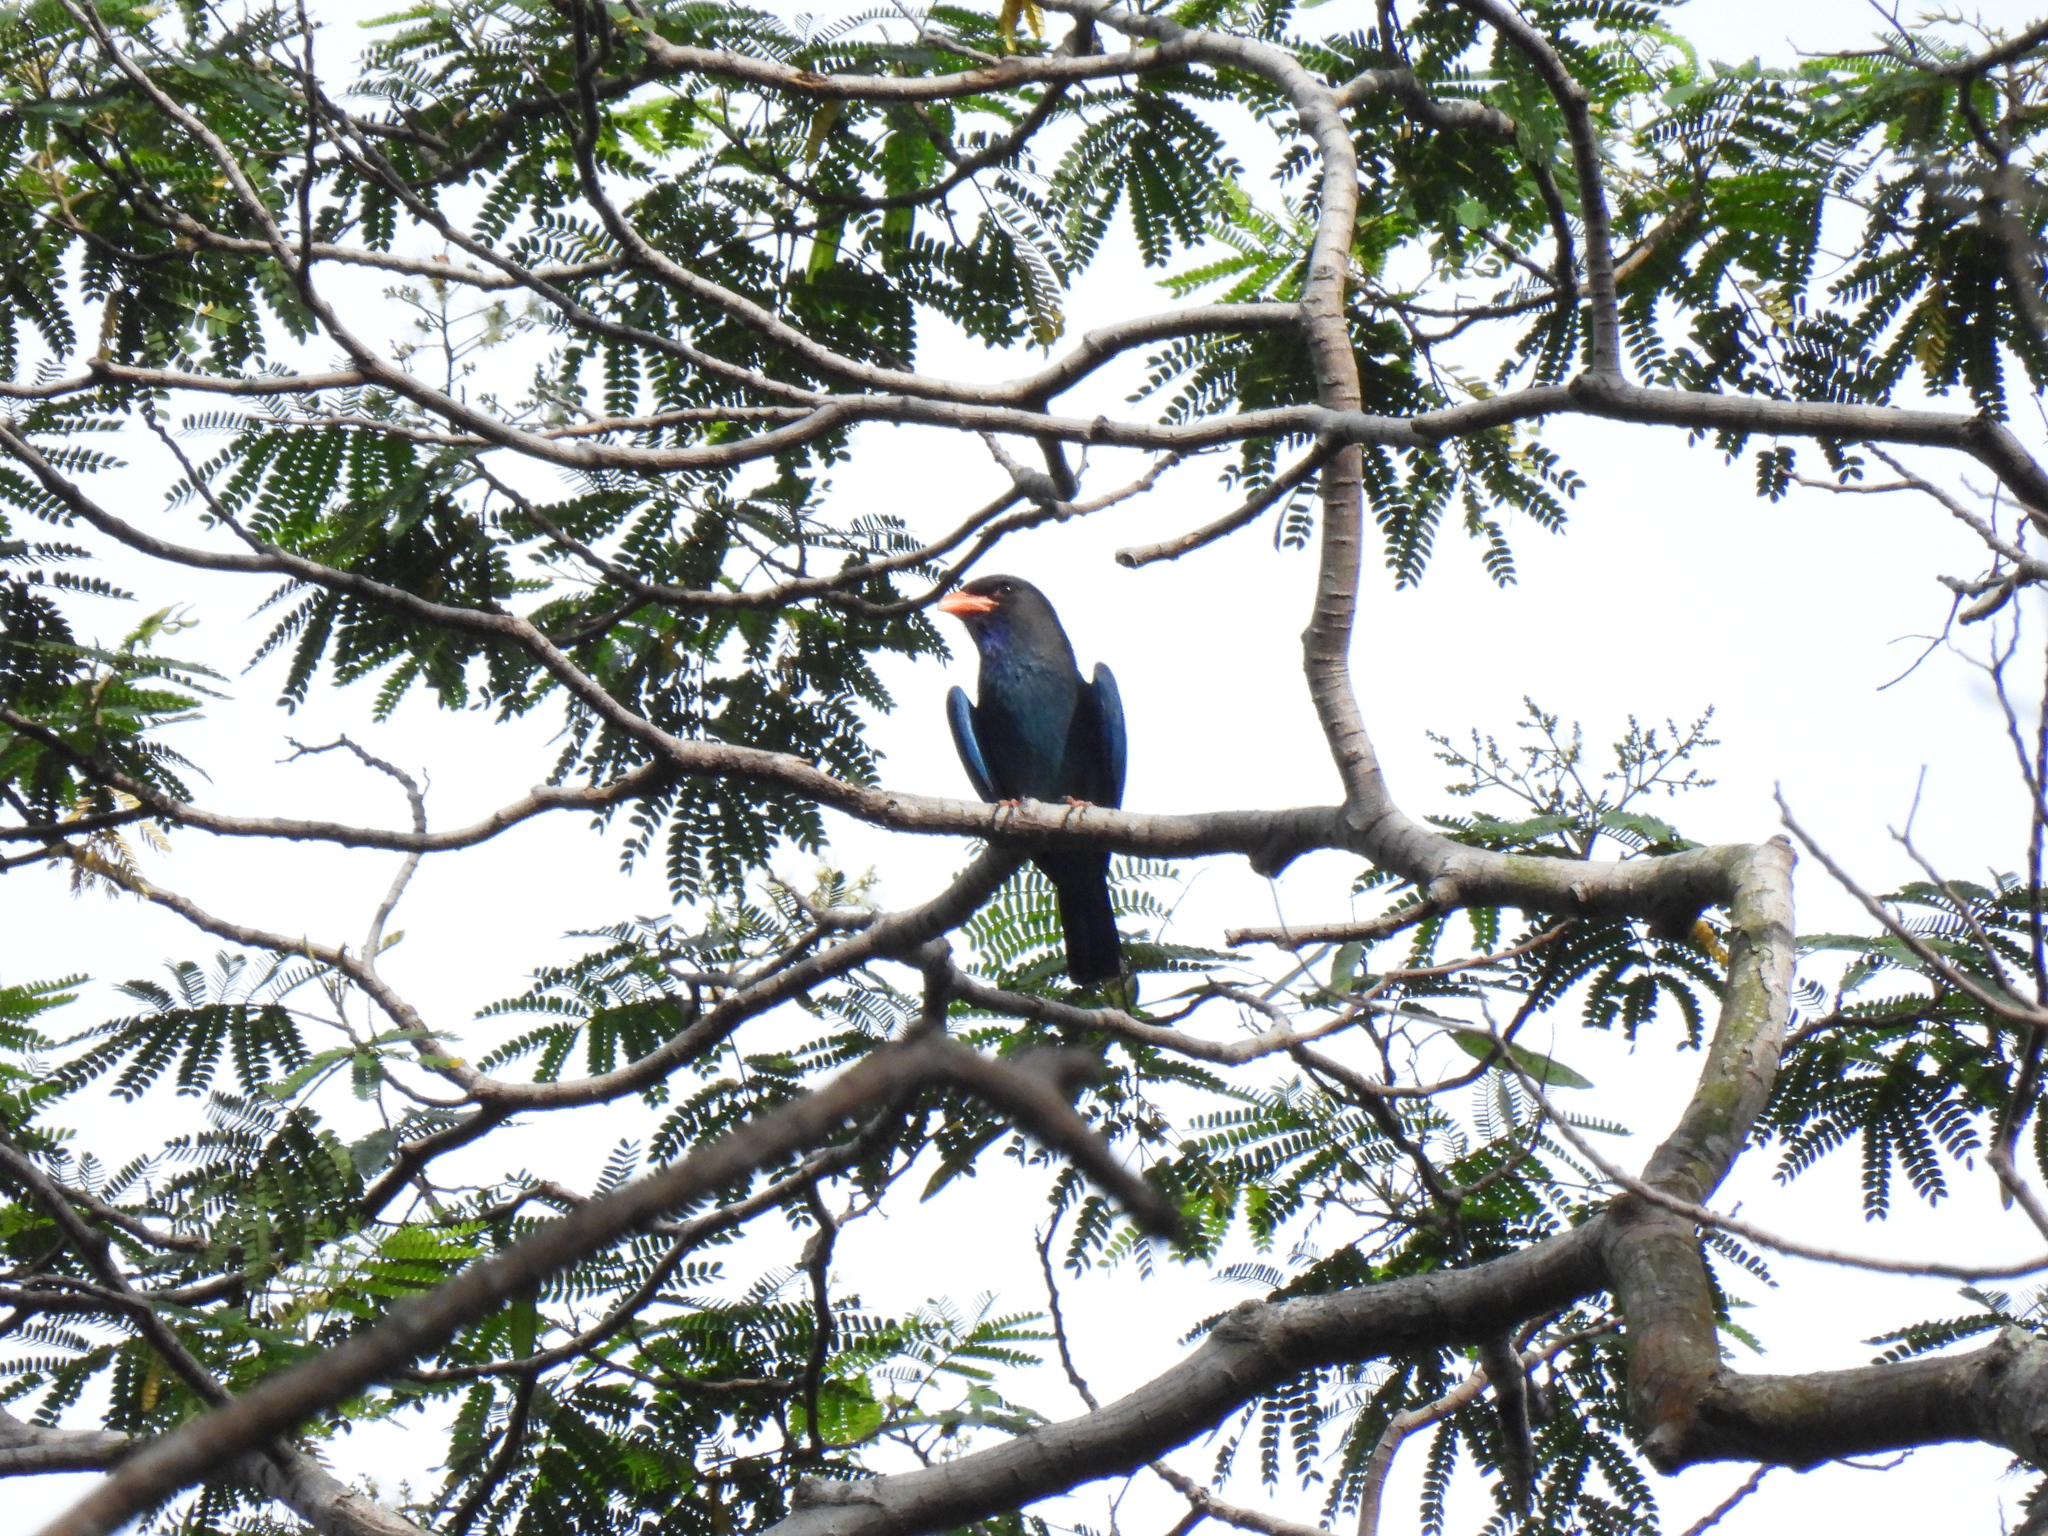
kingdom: Animalia
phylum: Chordata
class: Aves
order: Coraciiformes
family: Coraciidae
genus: Eurystomus
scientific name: Eurystomus orientalis
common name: Oriental dollarbird
